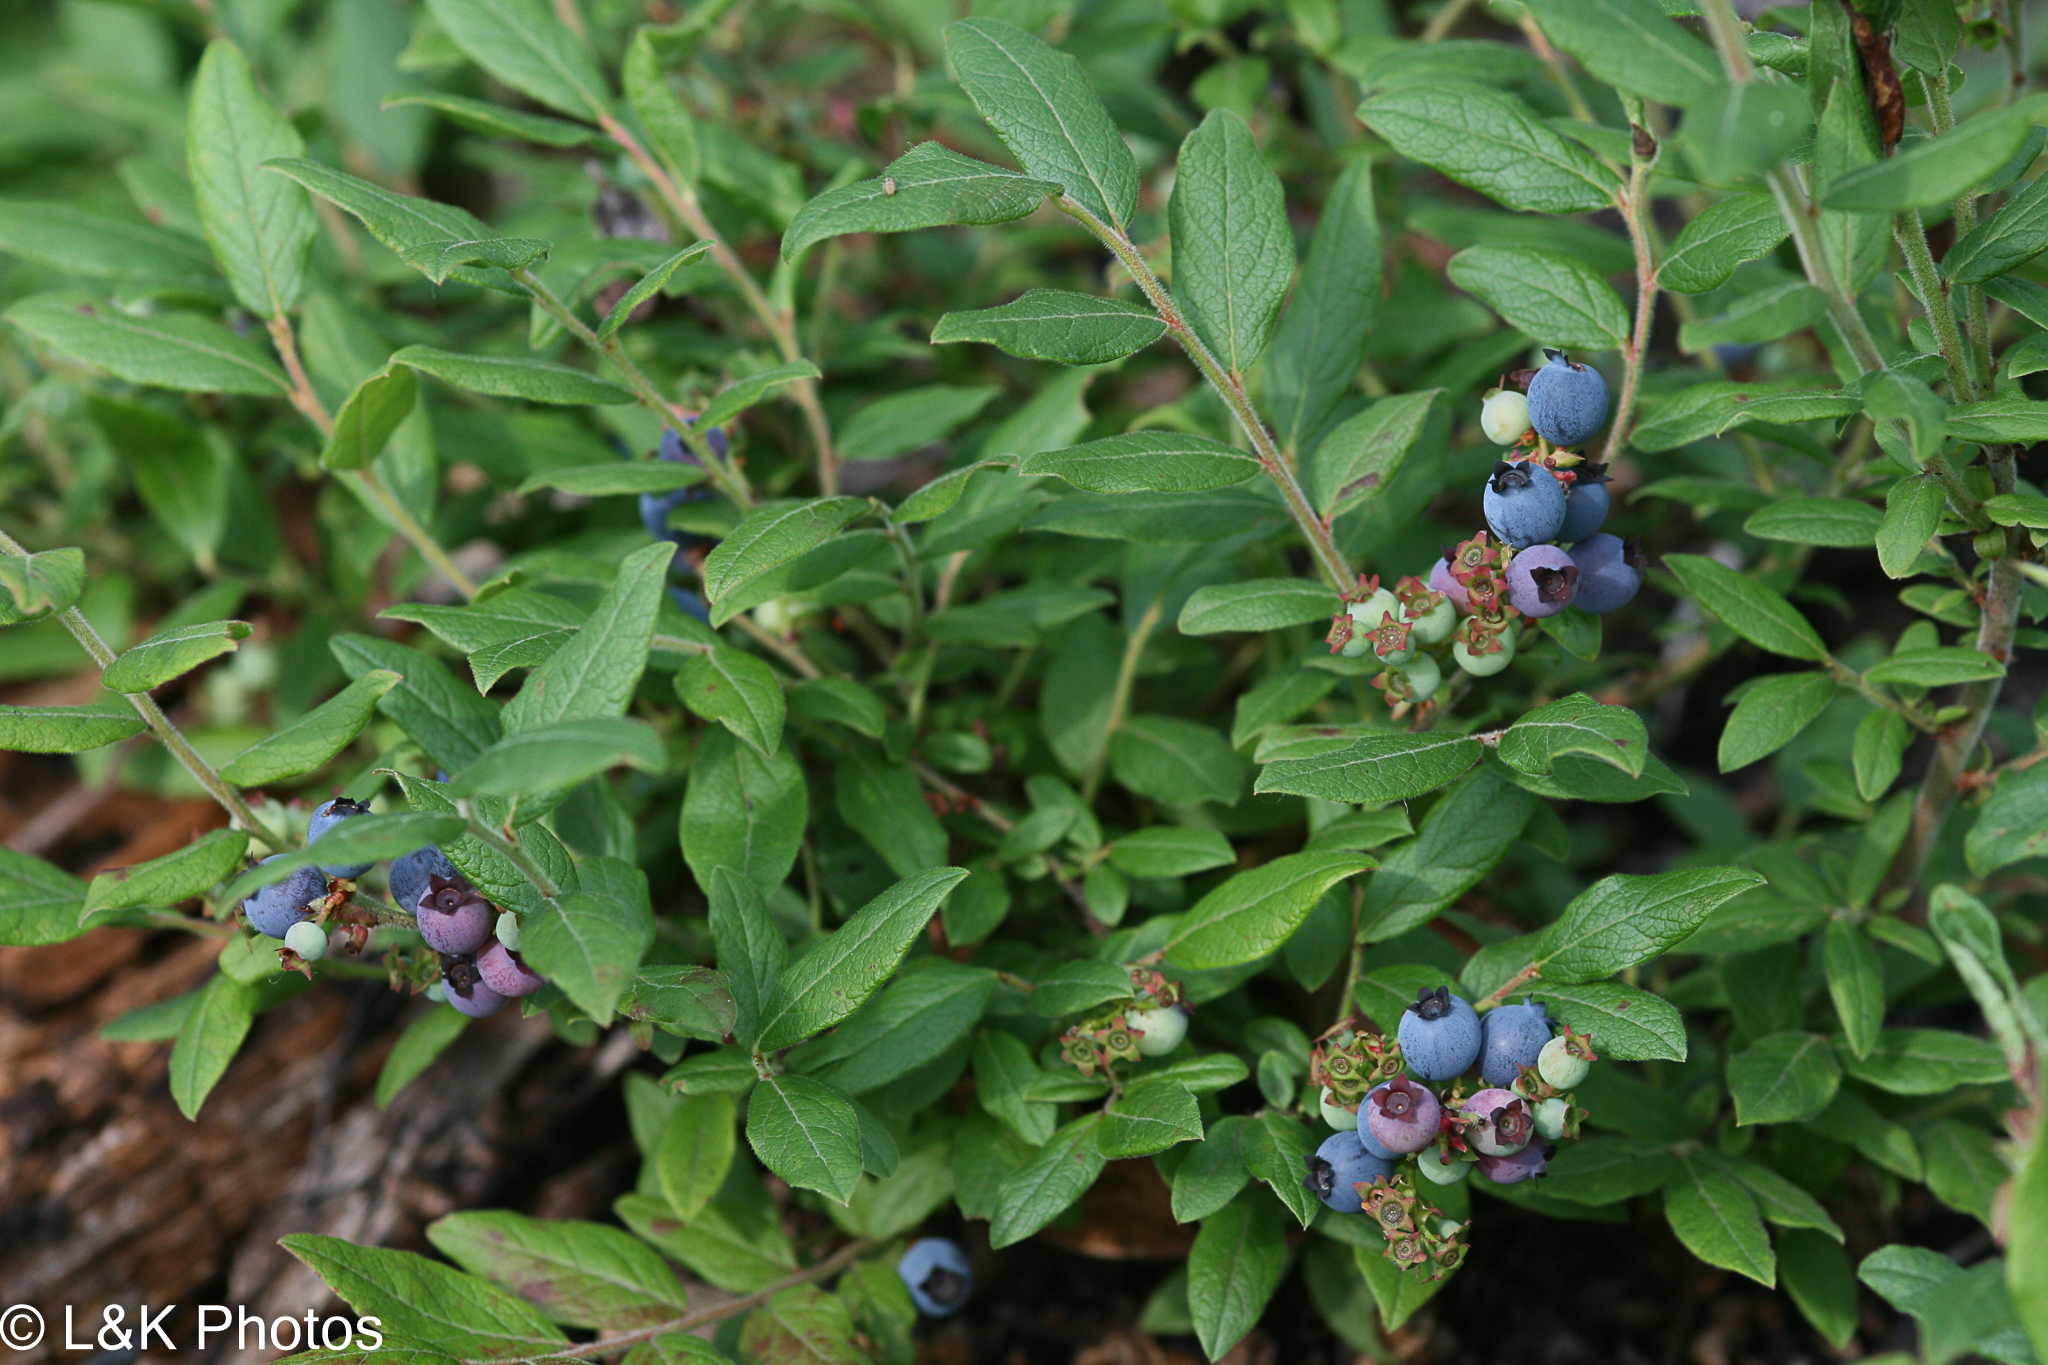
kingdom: Plantae
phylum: Tracheophyta
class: Magnoliopsida
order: Ericales
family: Ericaceae
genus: Vaccinium
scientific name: Vaccinium myrtilloides
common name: Canada blueberry
